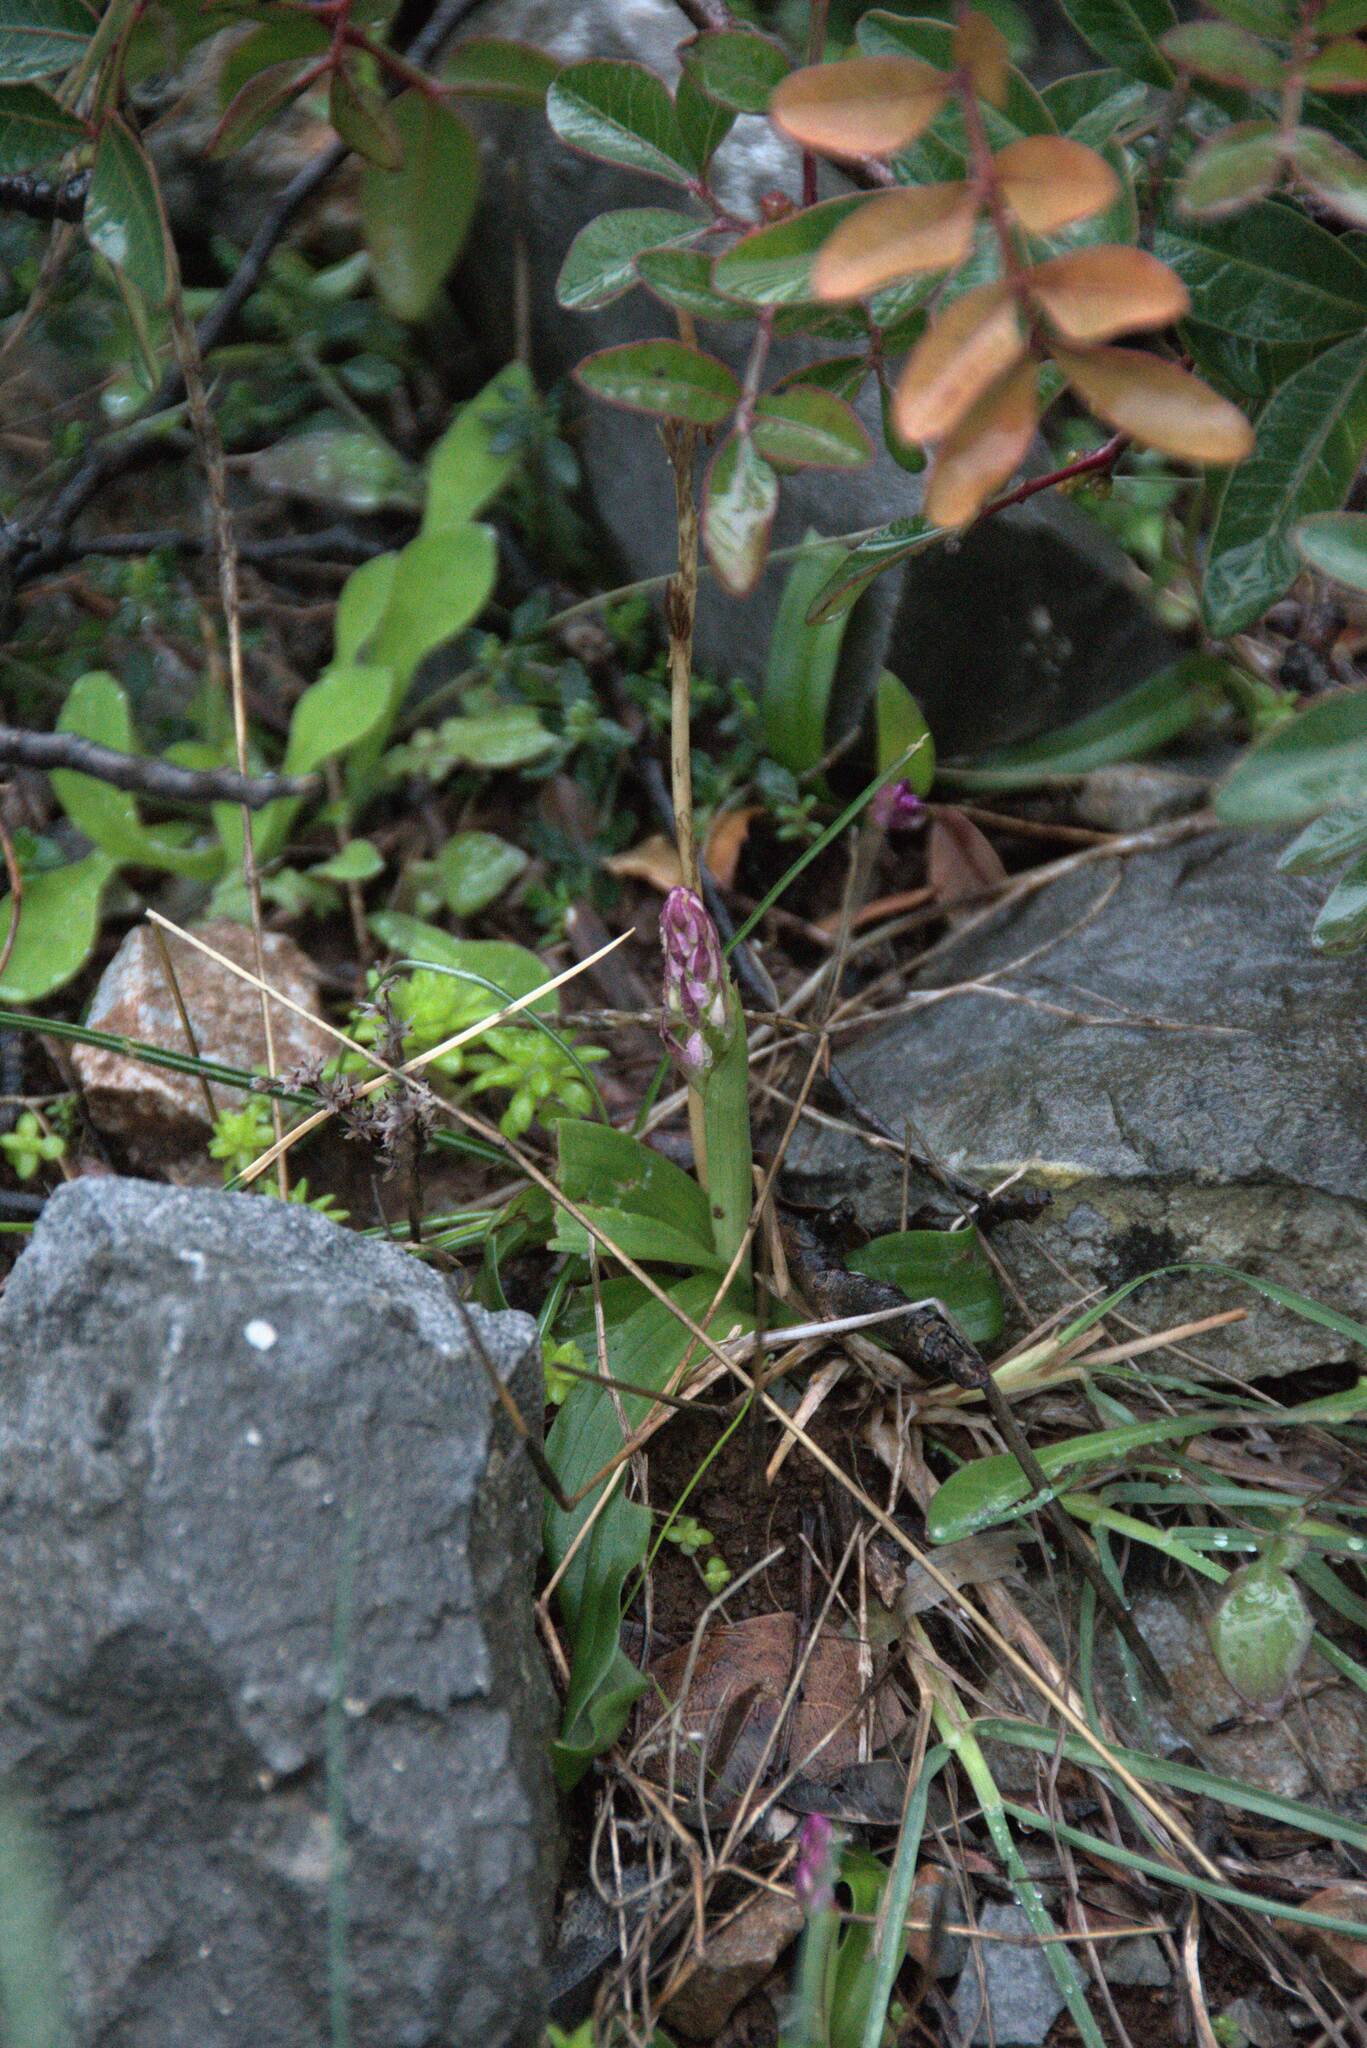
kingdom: Plantae
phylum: Tracheophyta
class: Liliopsida
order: Asparagales
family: Orchidaceae
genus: Orchis
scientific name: Orchis quadripunctata
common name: Four-spotted orchid
